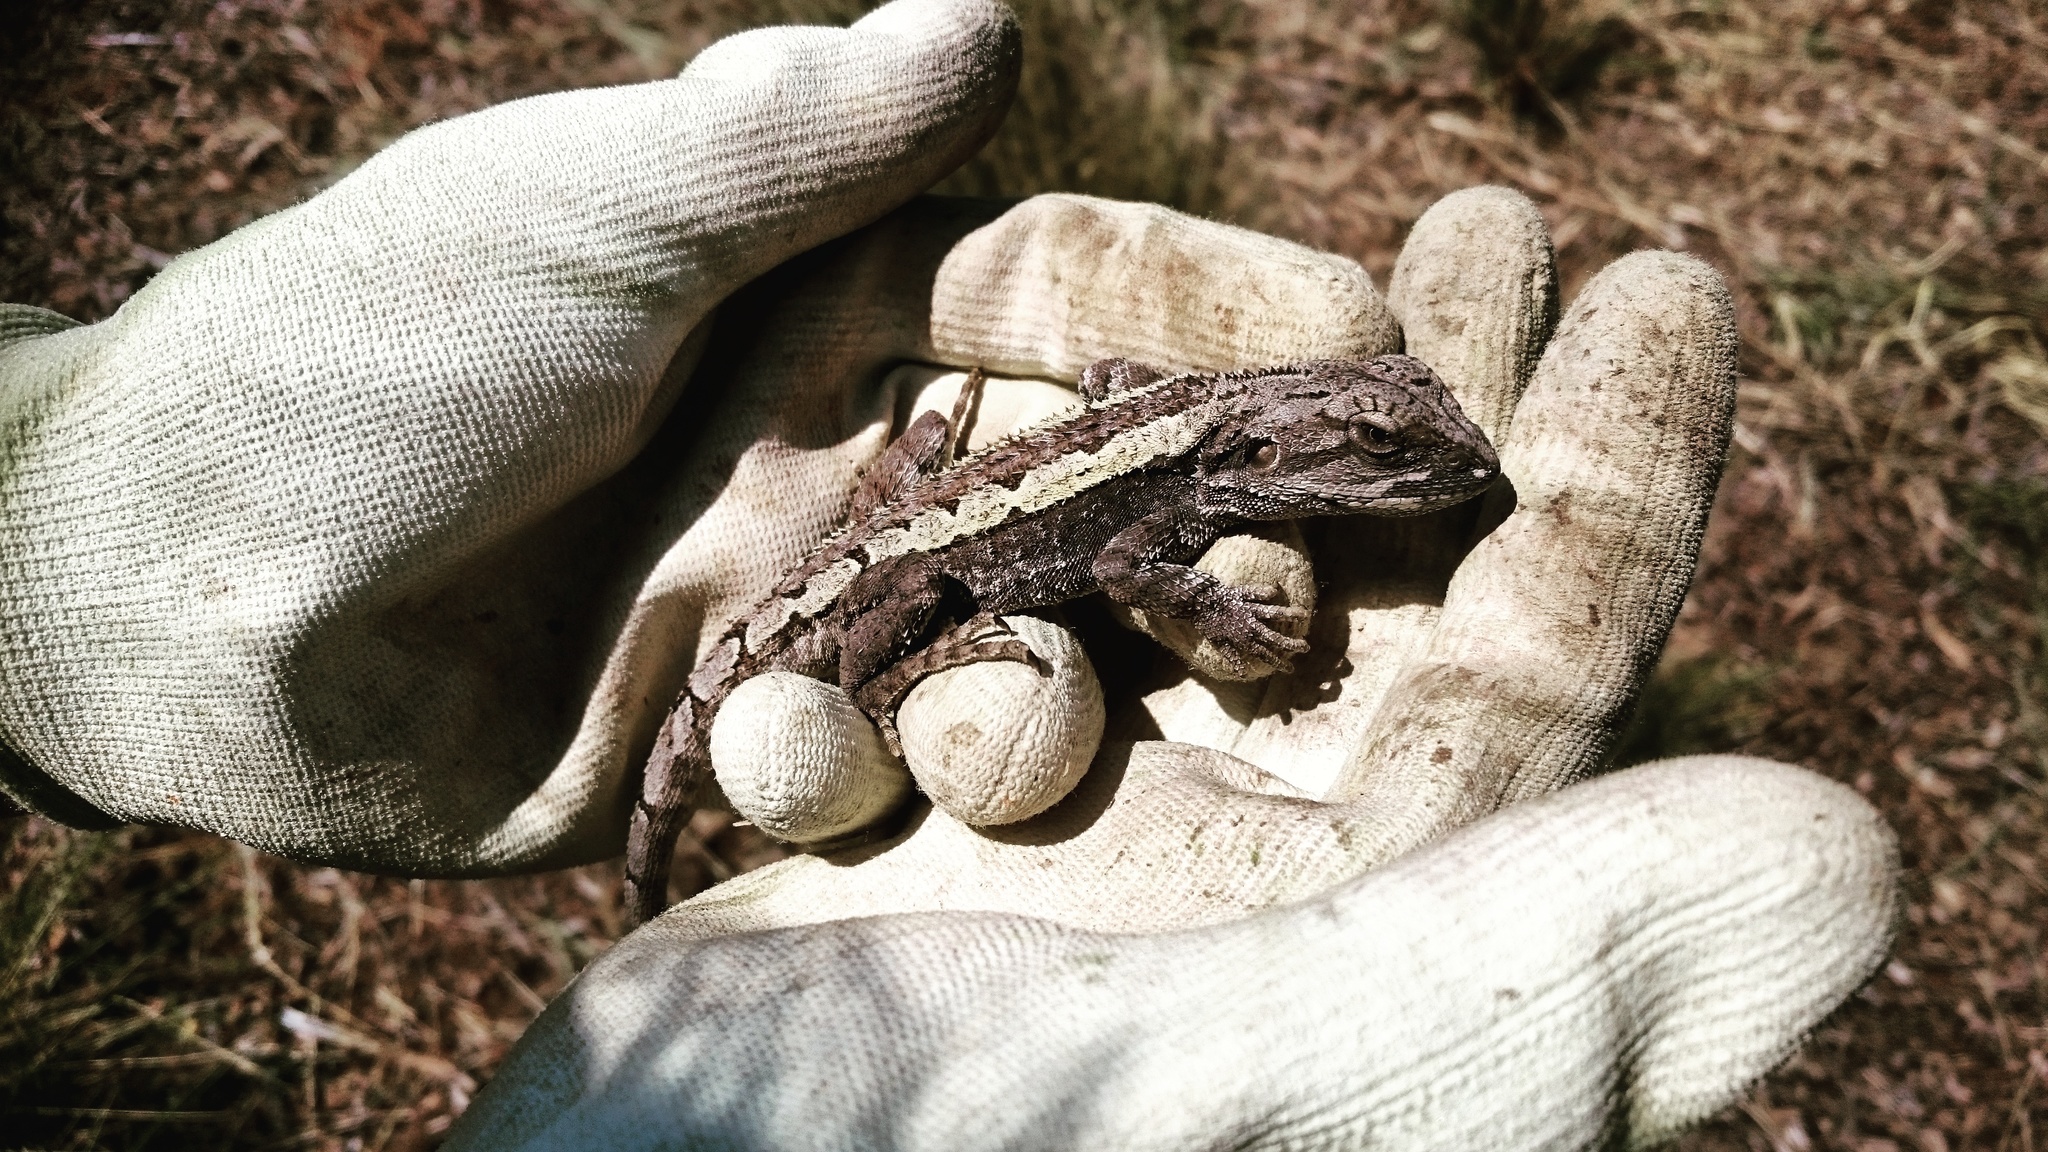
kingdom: Animalia
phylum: Chordata
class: Squamata
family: Agamidae
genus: Amphibolurus
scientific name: Amphibolurus muricatus
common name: Jacky lizard
